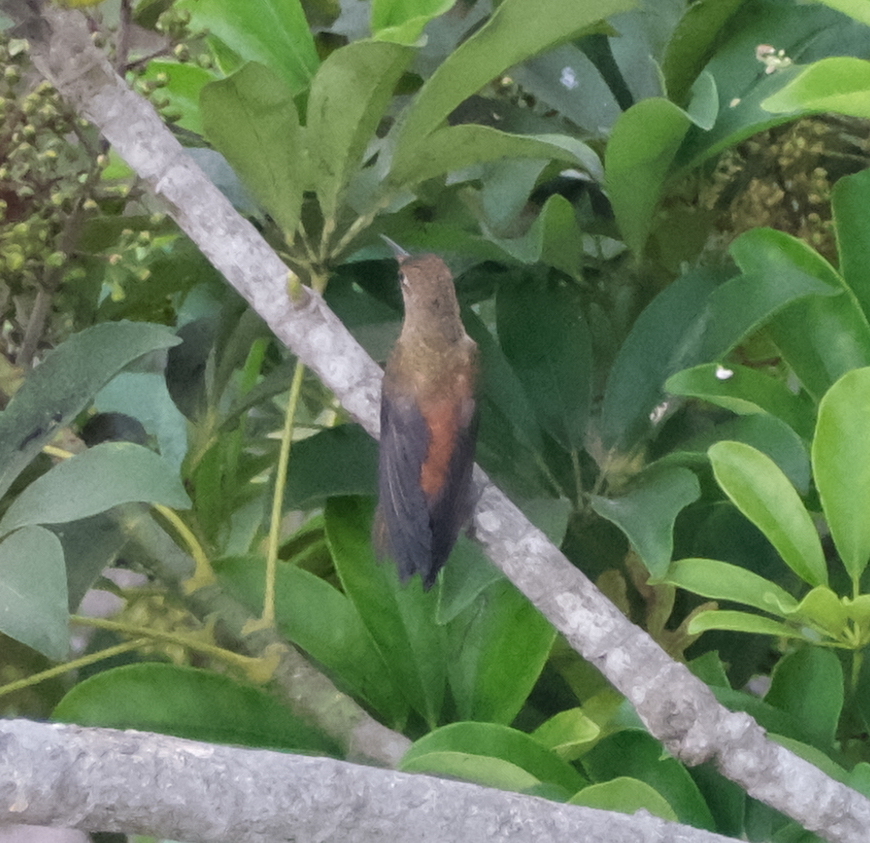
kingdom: Animalia
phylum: Chordata
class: Aves
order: Apodiformes
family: Trochilidae
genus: Amazilis
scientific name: Amazilis amazilia
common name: Amazilia hummingbird
